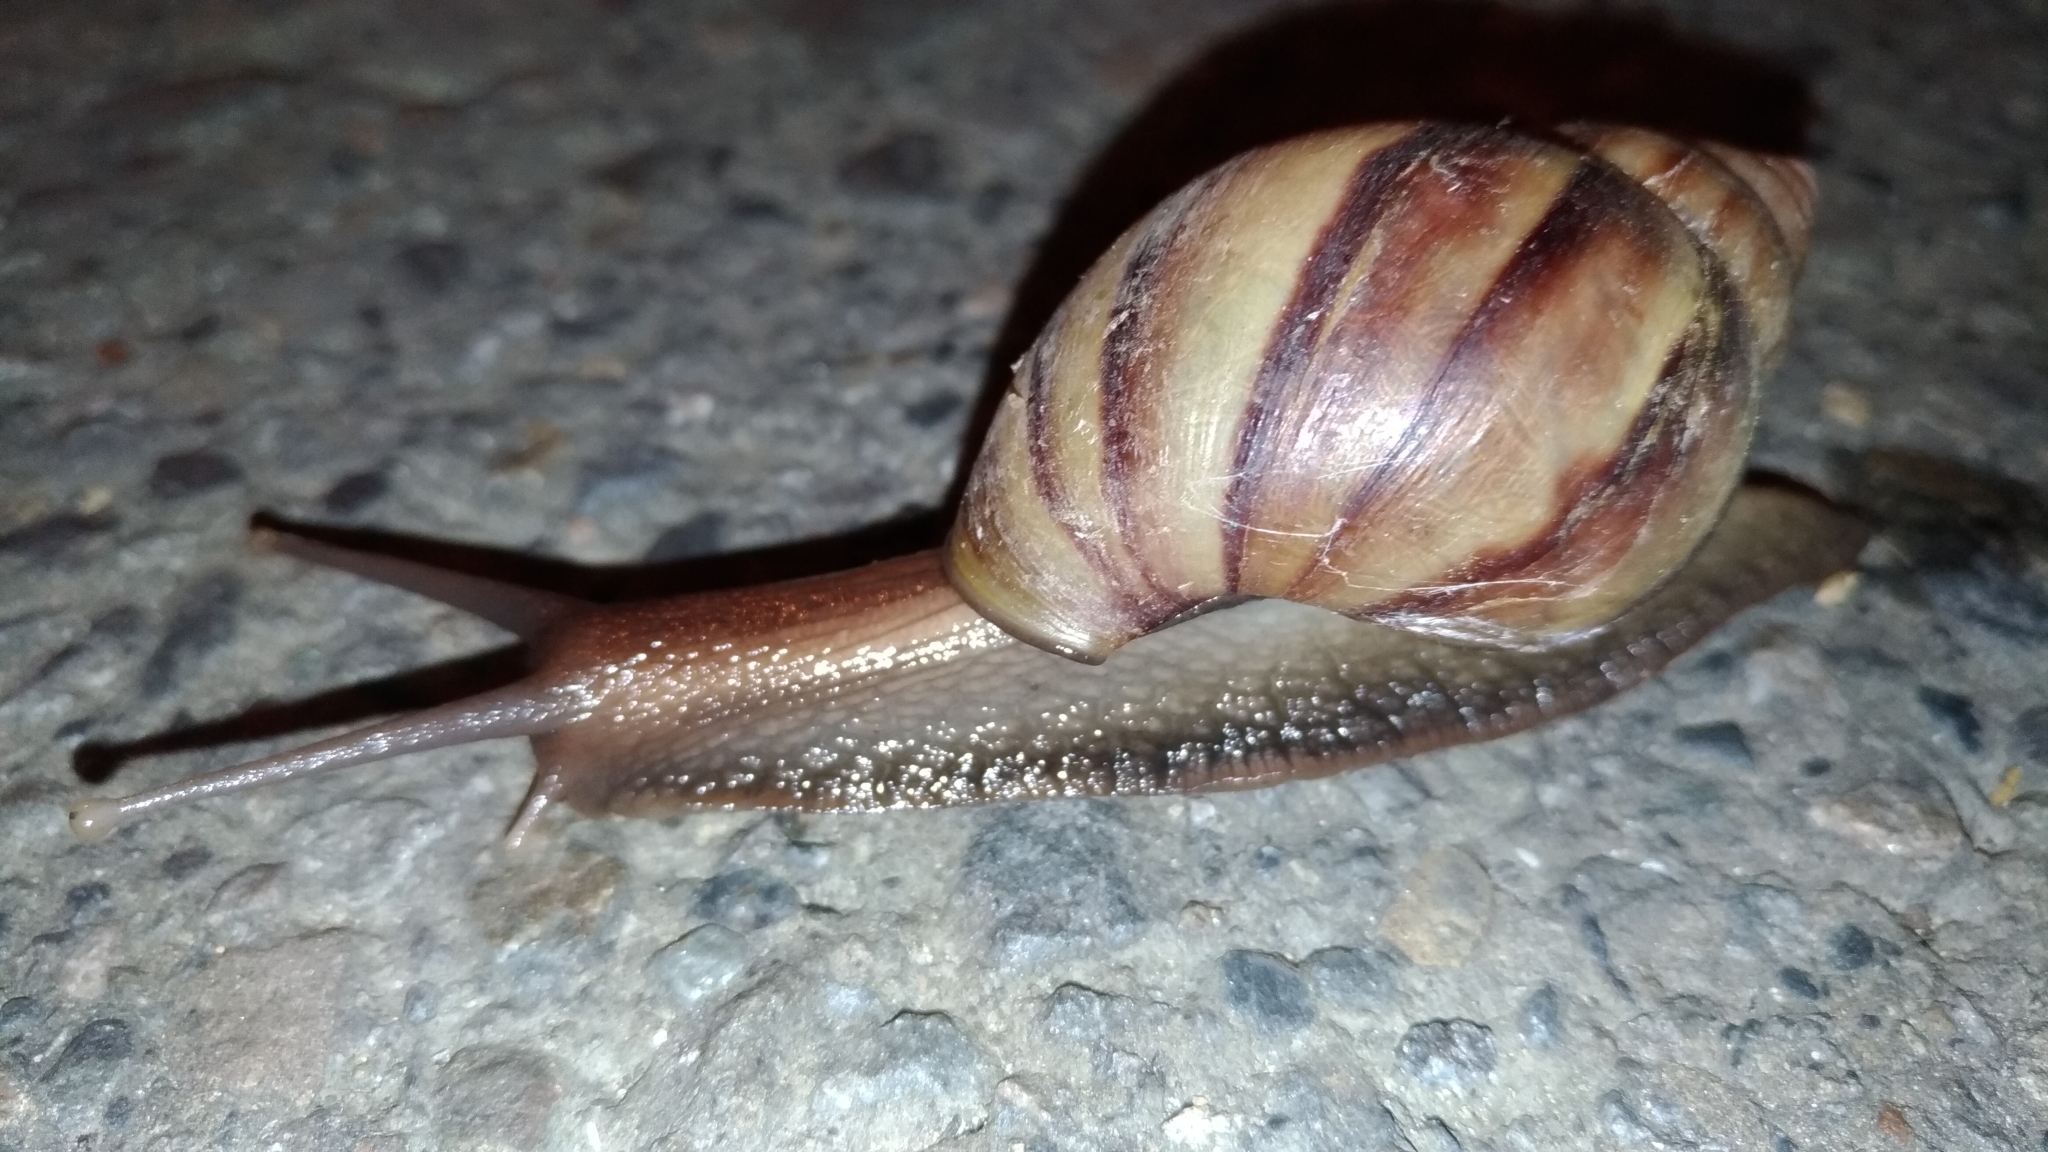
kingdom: Animalia
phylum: Mollusca
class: Gastropoda
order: Stylommatophora
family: Achatinidae
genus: Lissachatina
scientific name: Lissachatina fulica
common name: Giant african snail
